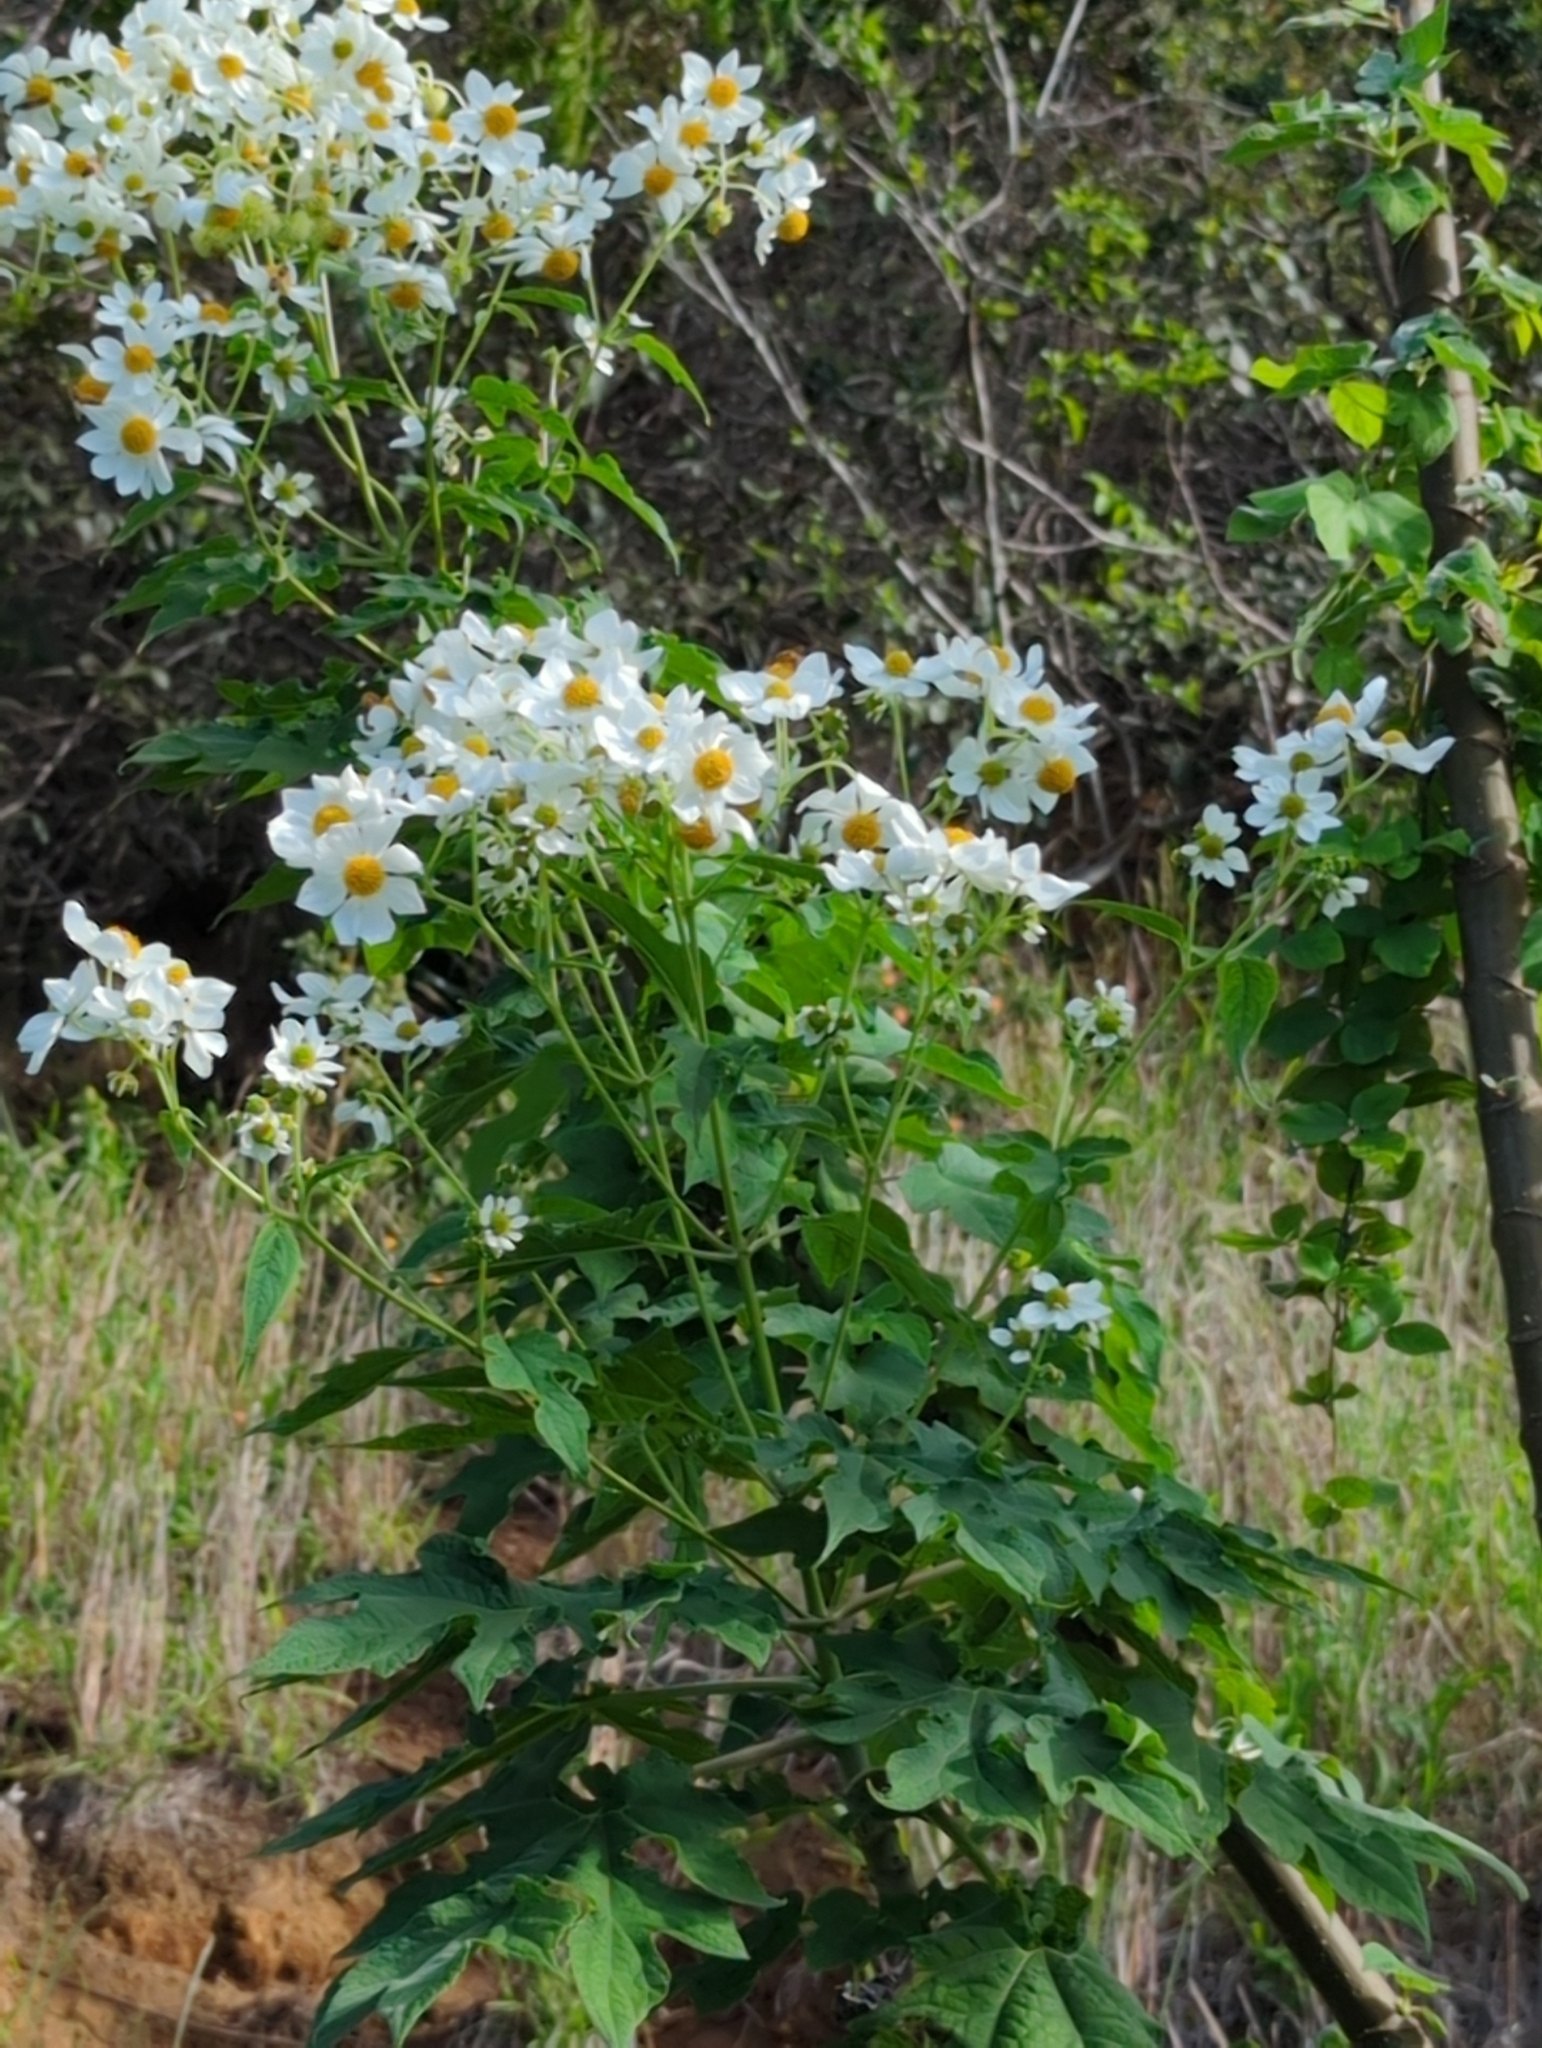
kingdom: Plantae
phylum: Tracheophyta
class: Magnoliopsida
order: Asterales
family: Asteraceae
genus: Montanoa
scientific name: Montanoa hibiscifolia
